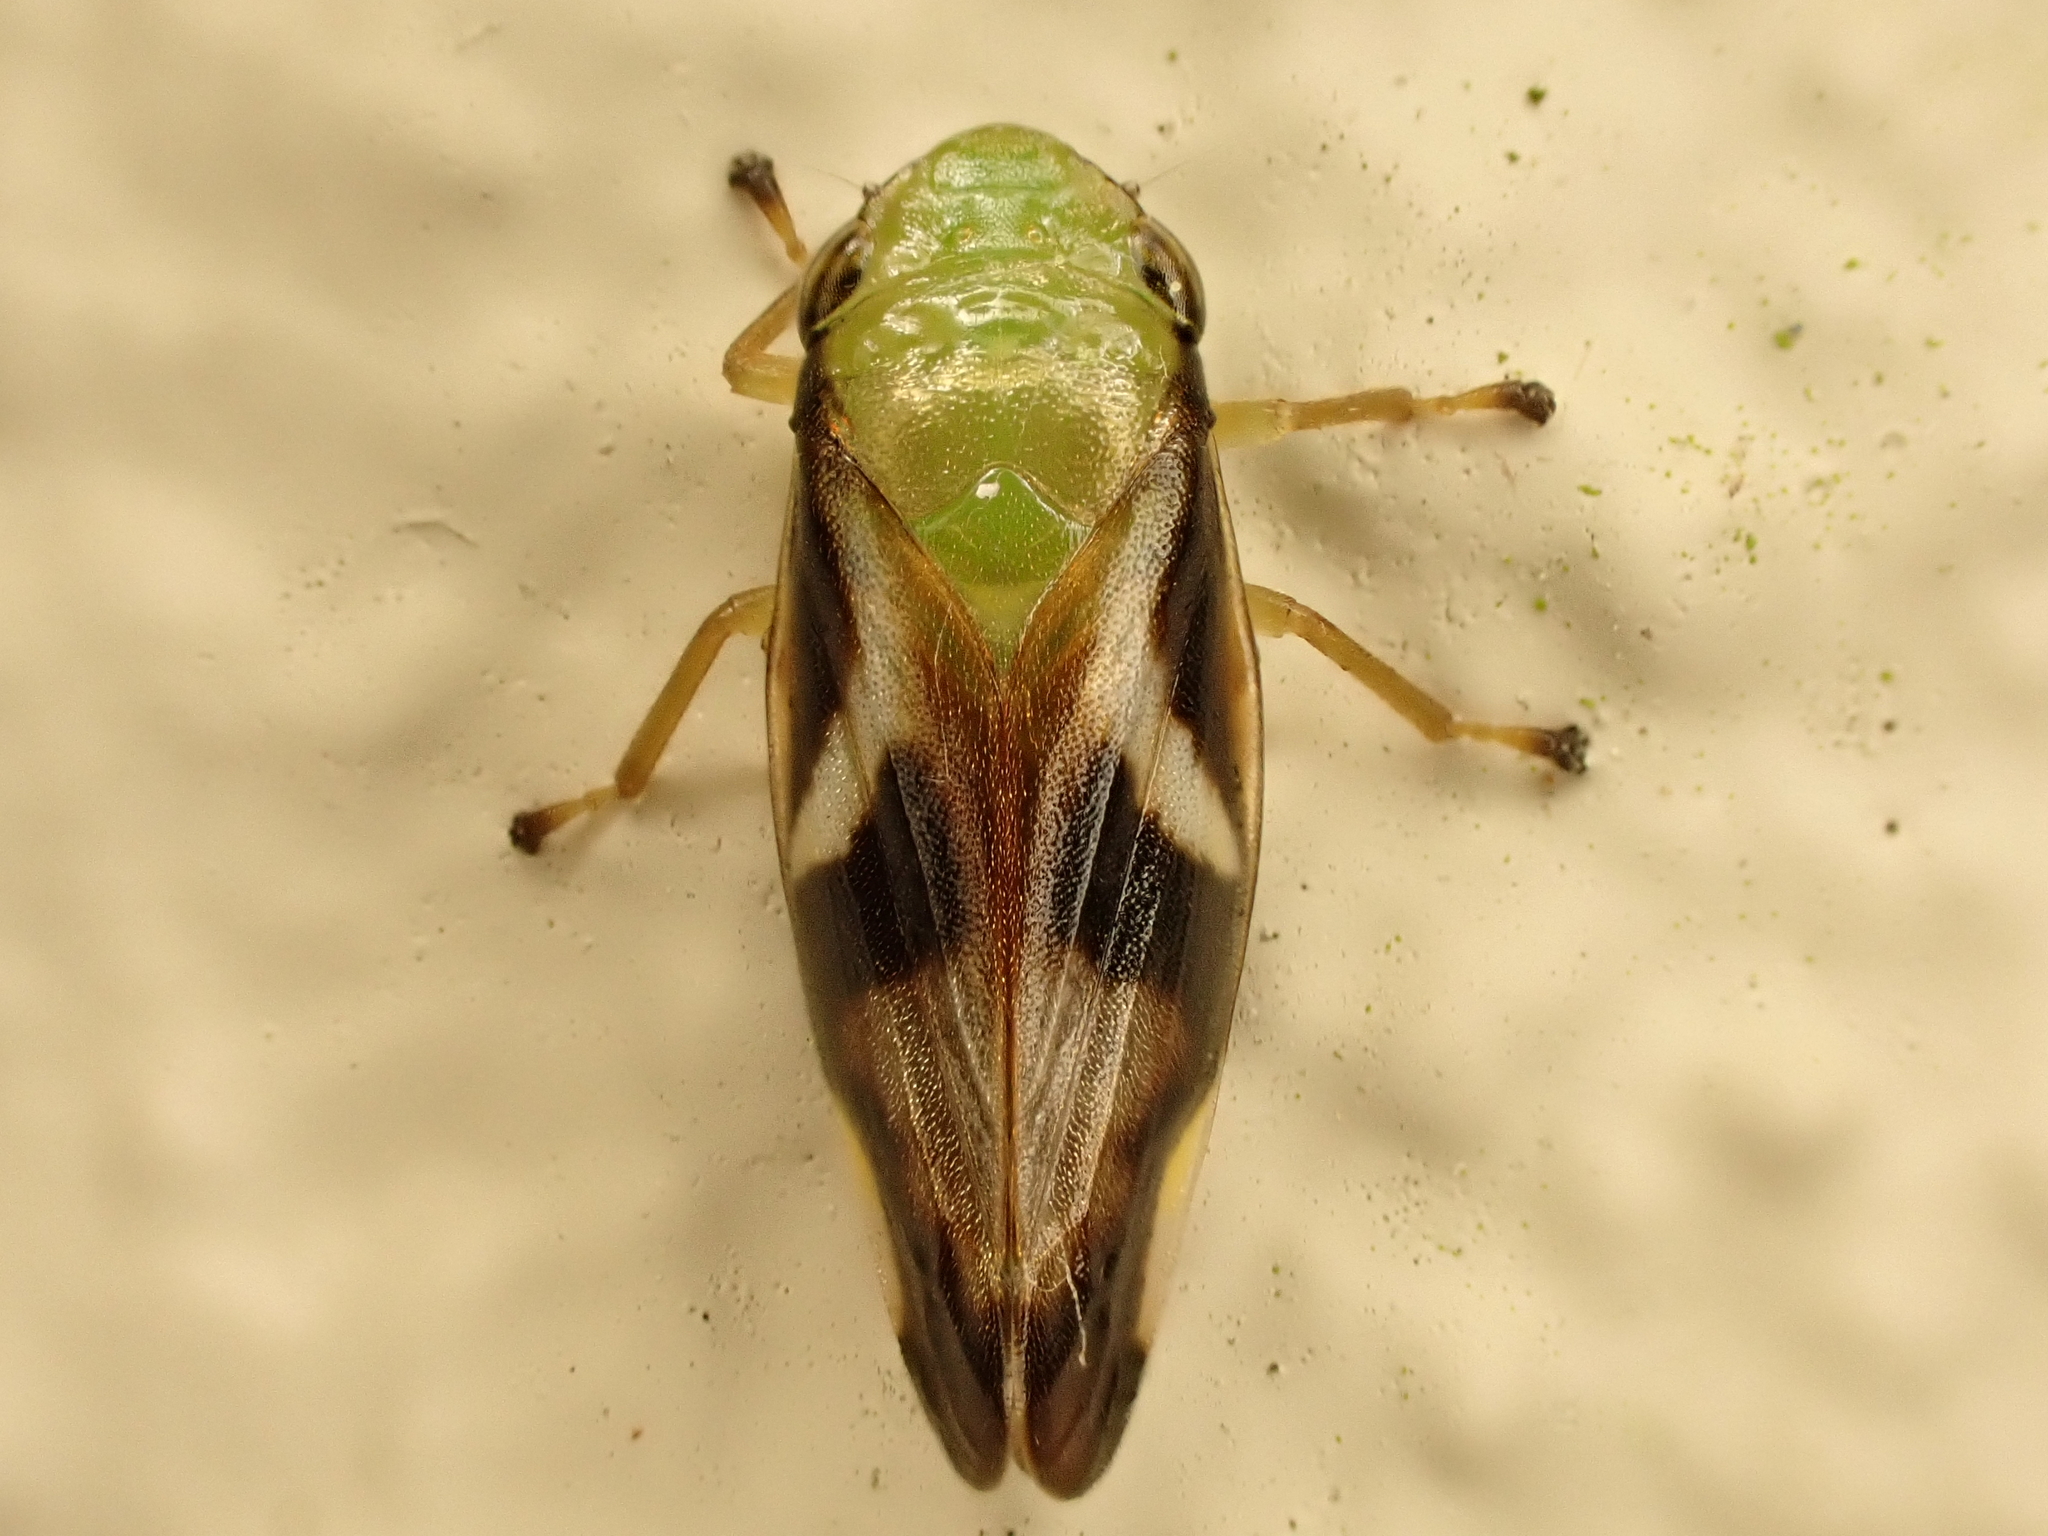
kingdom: Animalia
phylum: Arthropoda
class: Insecta
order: Hemiptera
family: Aphrophoridae
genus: Carystoterpa
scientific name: Carystoterpa fingens
